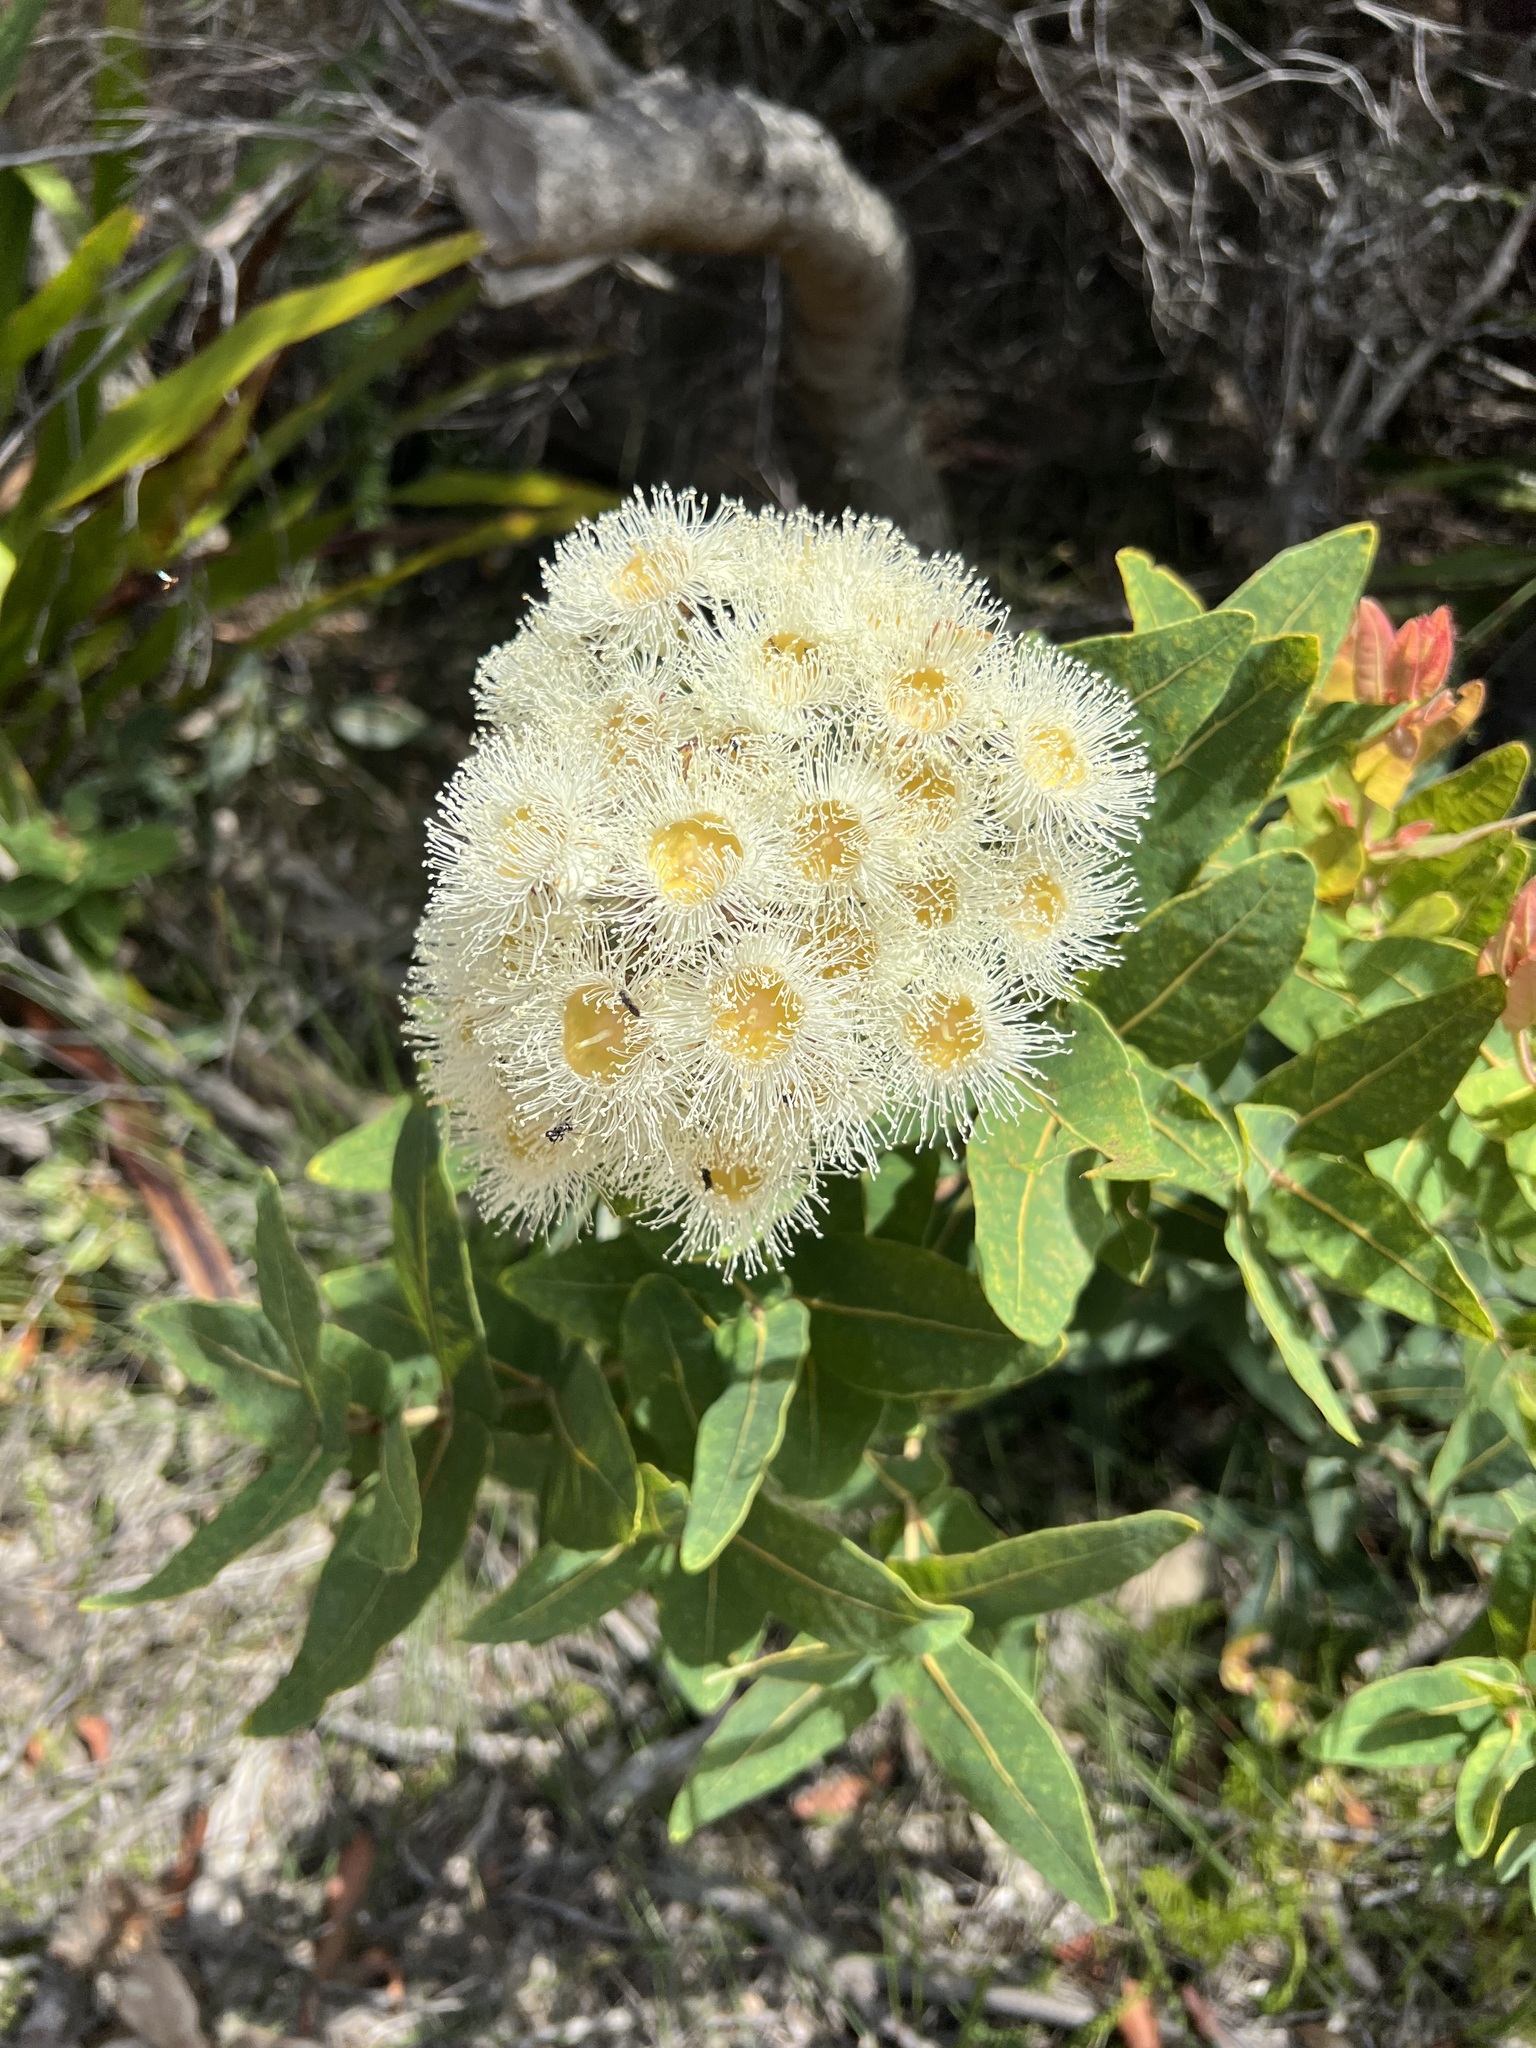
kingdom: Plantae
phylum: Tracheophyta
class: Magnoliopsida
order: Myrtales
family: Myrtaceae
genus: Angophora
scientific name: Angophora hispida
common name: Dwarf-apple
